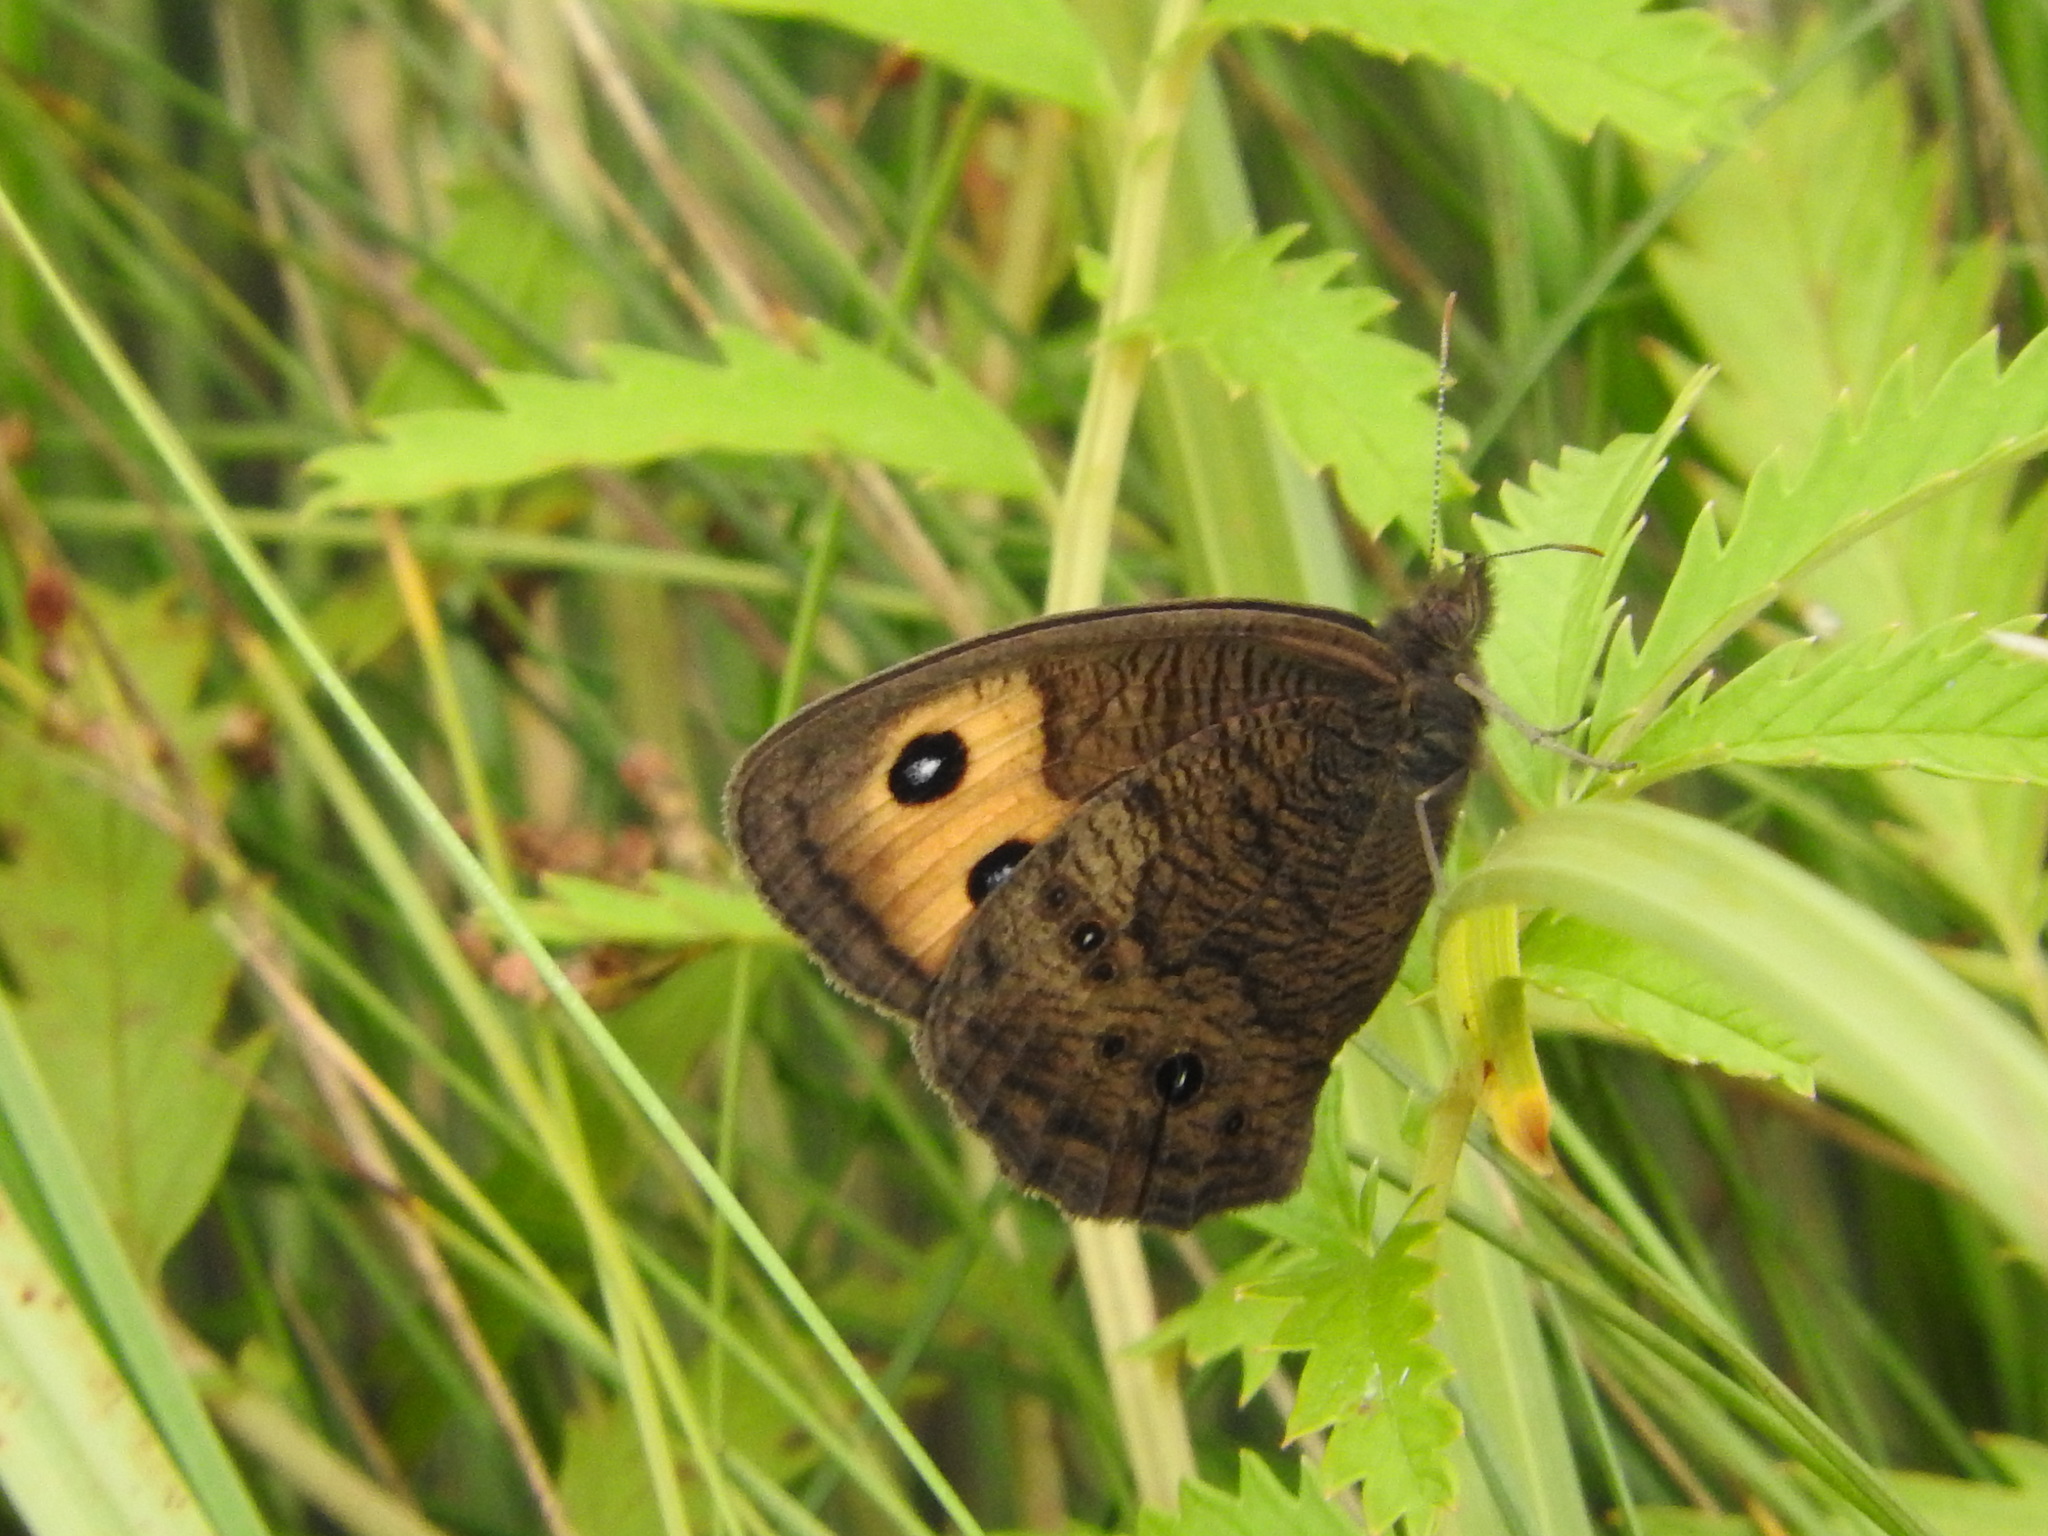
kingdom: Animalia
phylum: Arthropoda
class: Insecta
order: Lepidoptera
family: Nymphalidae
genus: Cercyonis
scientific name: Cercyonis pegala
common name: Common wood-nymph
